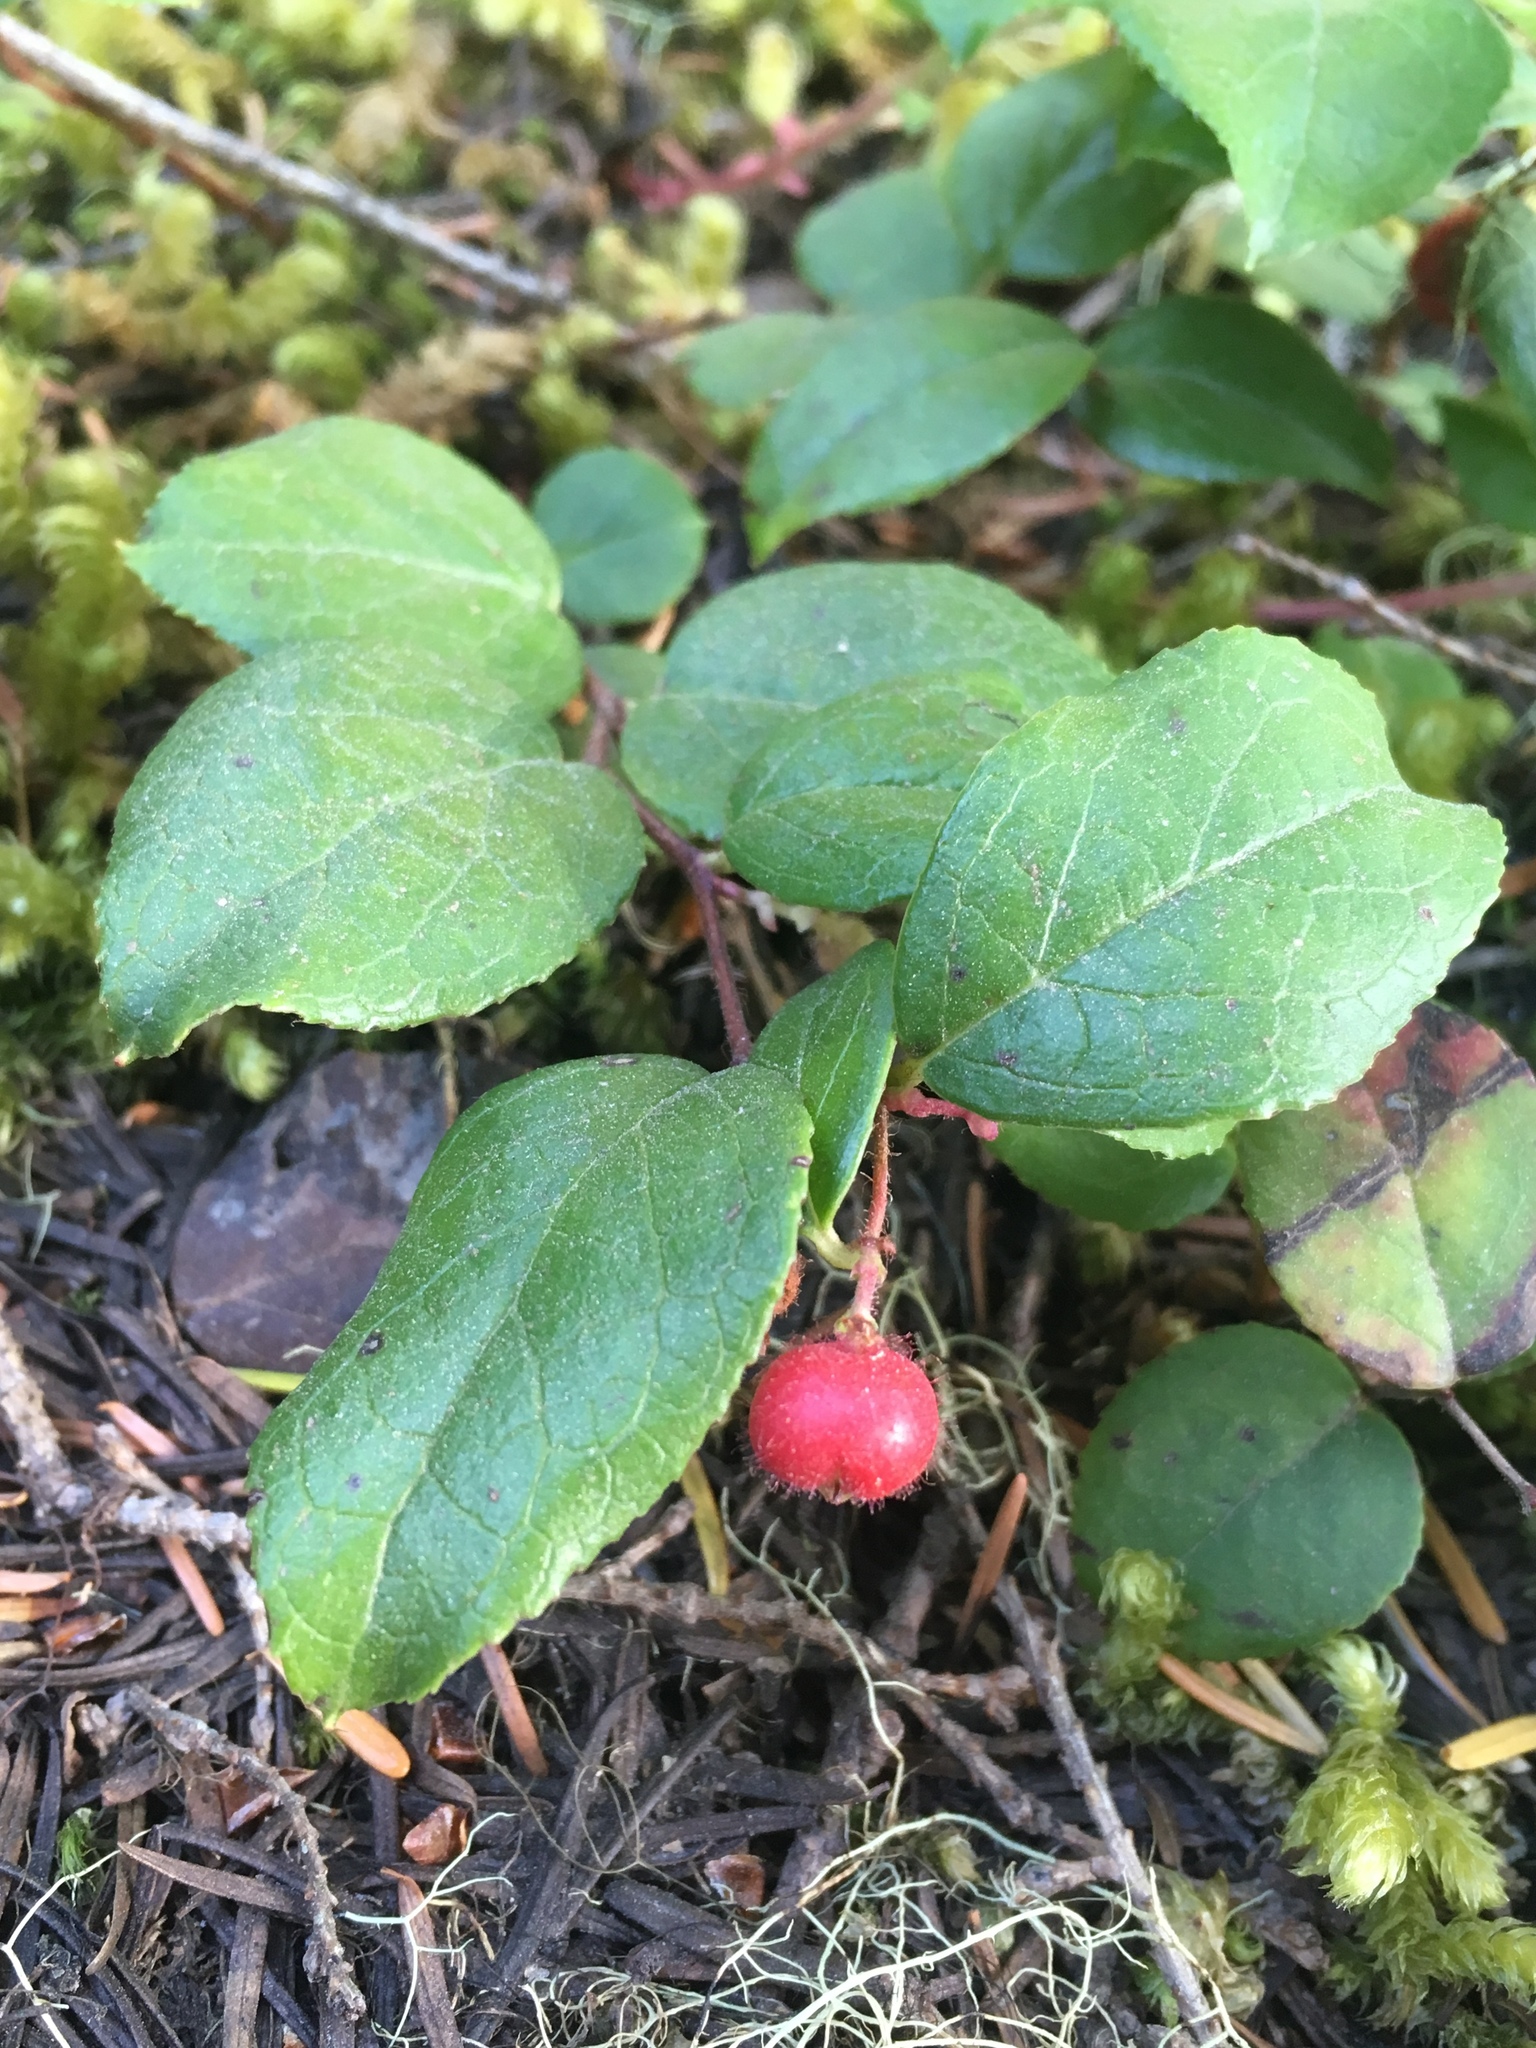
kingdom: Plantae
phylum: Tracheophyta
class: Magnoliopsida
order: Ericales
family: Ericaceae
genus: Gaultheria
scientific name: Gaultheria ovatifolia
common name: Oregon wintergreen
